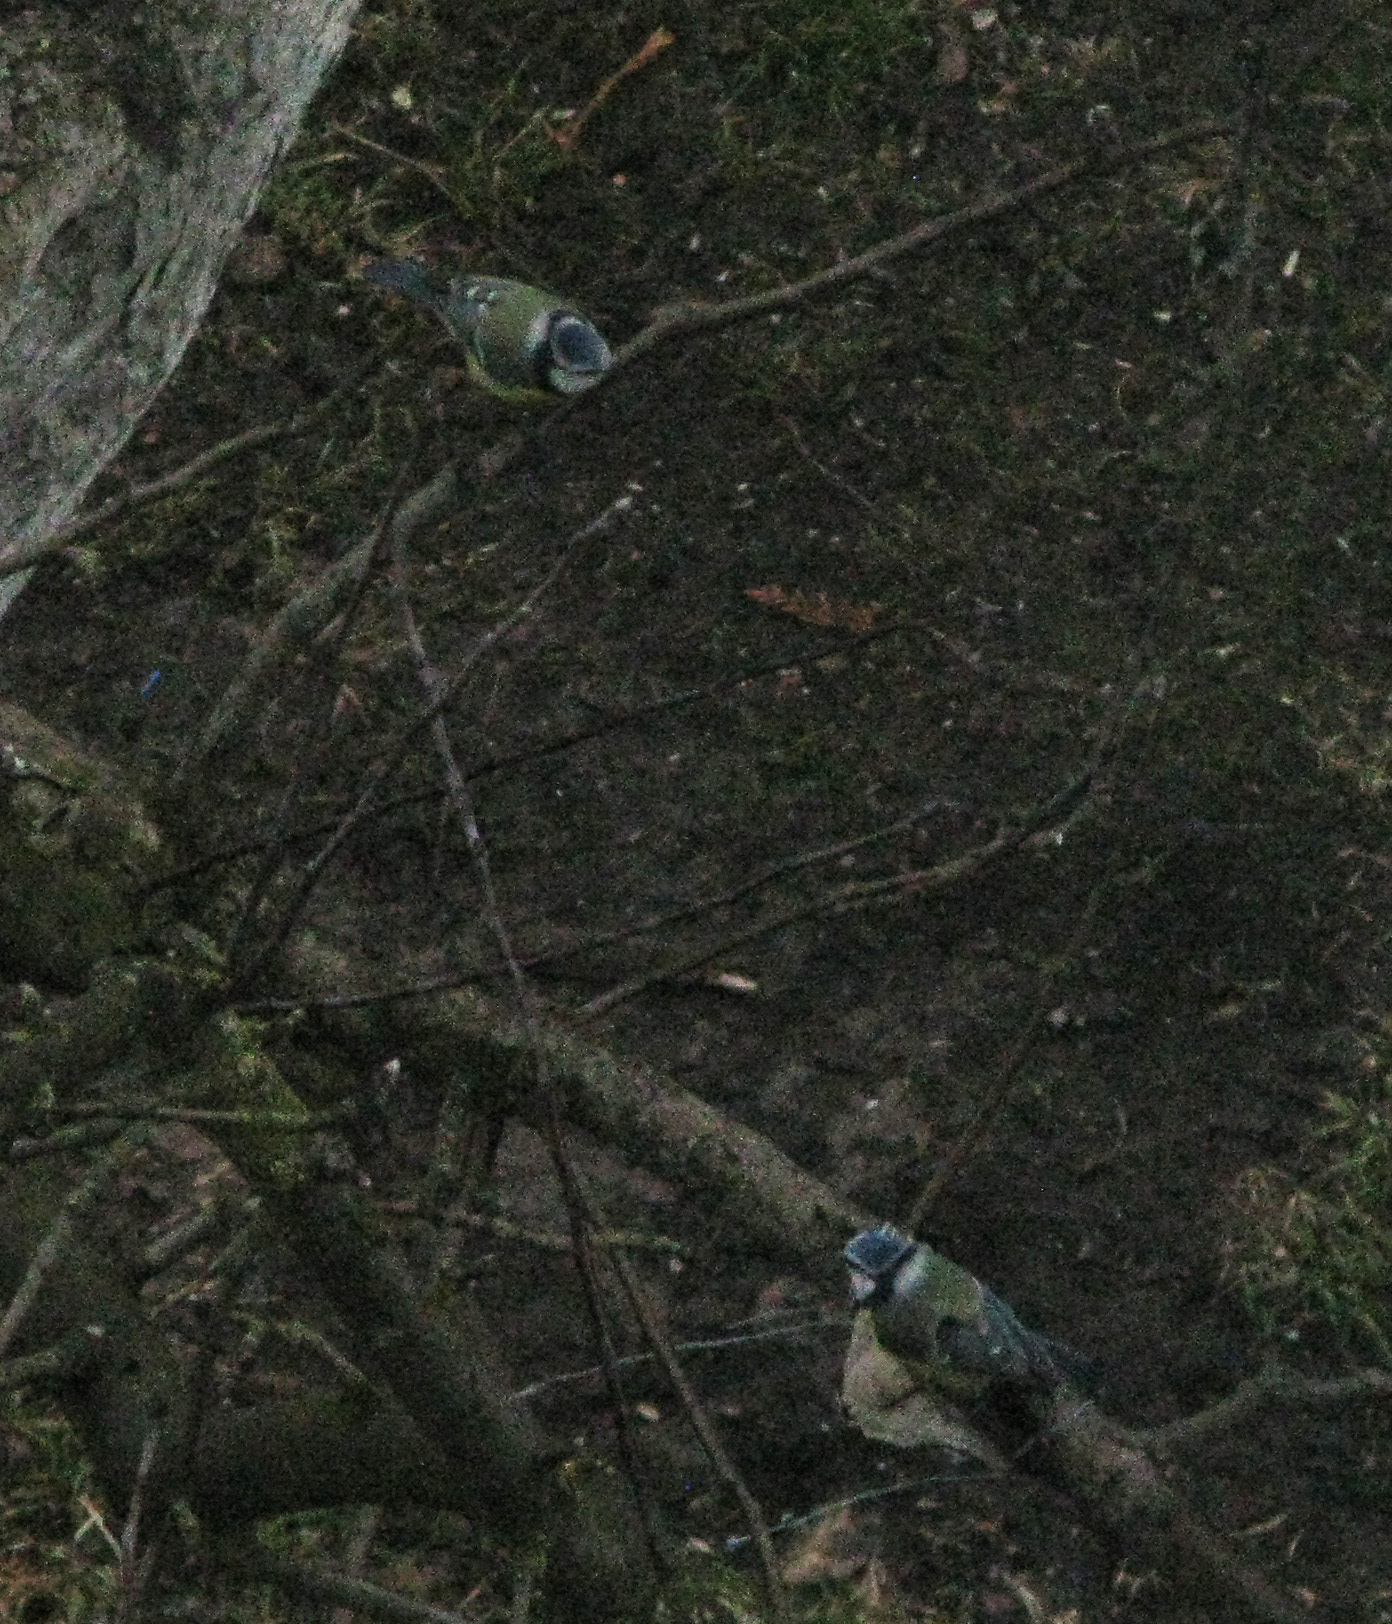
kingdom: Animalia
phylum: Chordata
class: Aves
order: Passeriformes
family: Paridae
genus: Cyanistes
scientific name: Cyanistes caeruleus
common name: Eurasian blue tit
